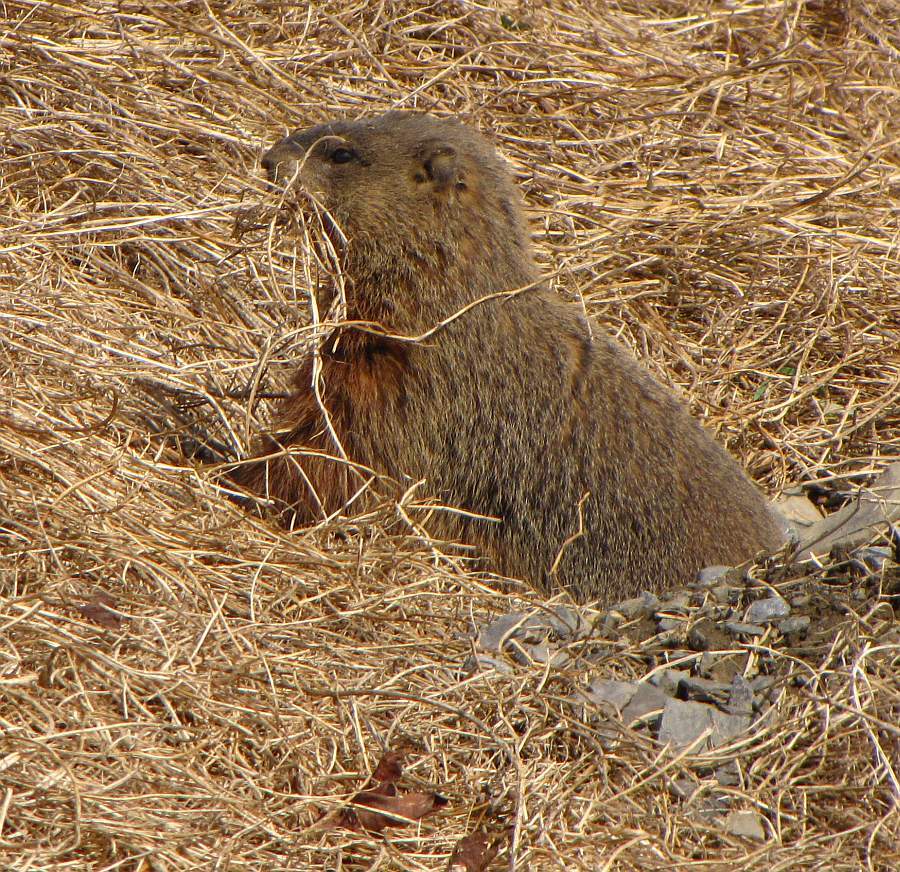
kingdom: Animalia
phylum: Chordata
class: Mammalia
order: Rodentia
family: Sciuridae
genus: Marmota
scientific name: Marmota monax
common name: Groundhog
